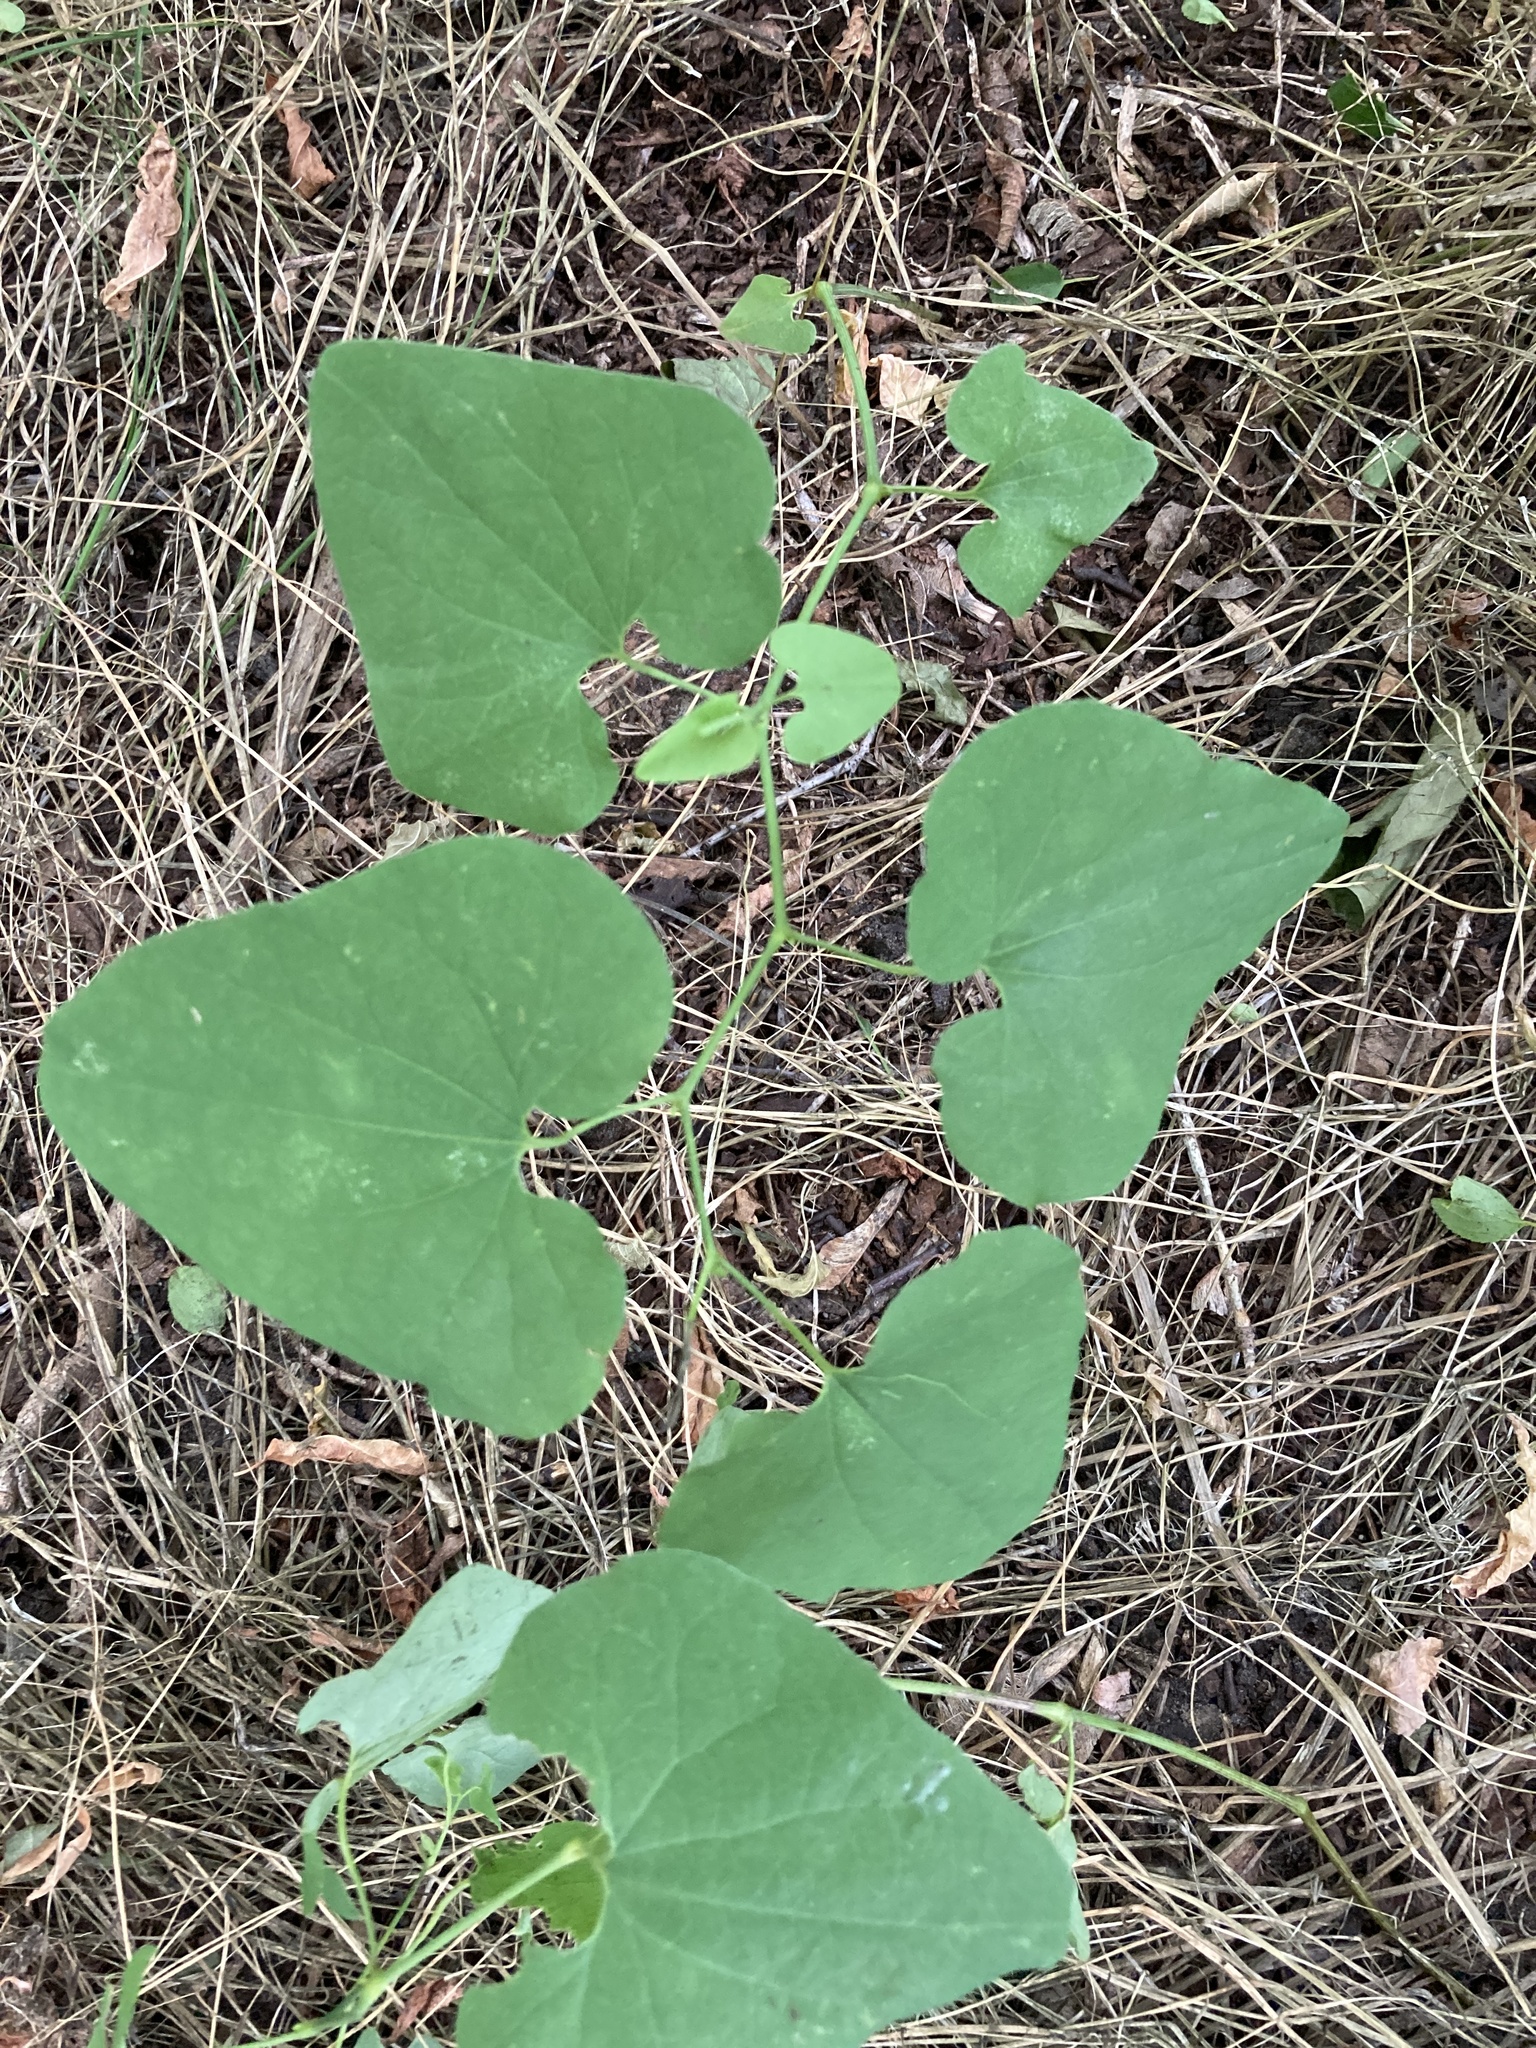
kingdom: Plantae
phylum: Tracheophyta
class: Magnoliopsida
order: Piperales
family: Aristolochiaceae
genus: Aristolochia
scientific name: Aristolochia clematitis
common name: Birthwort
